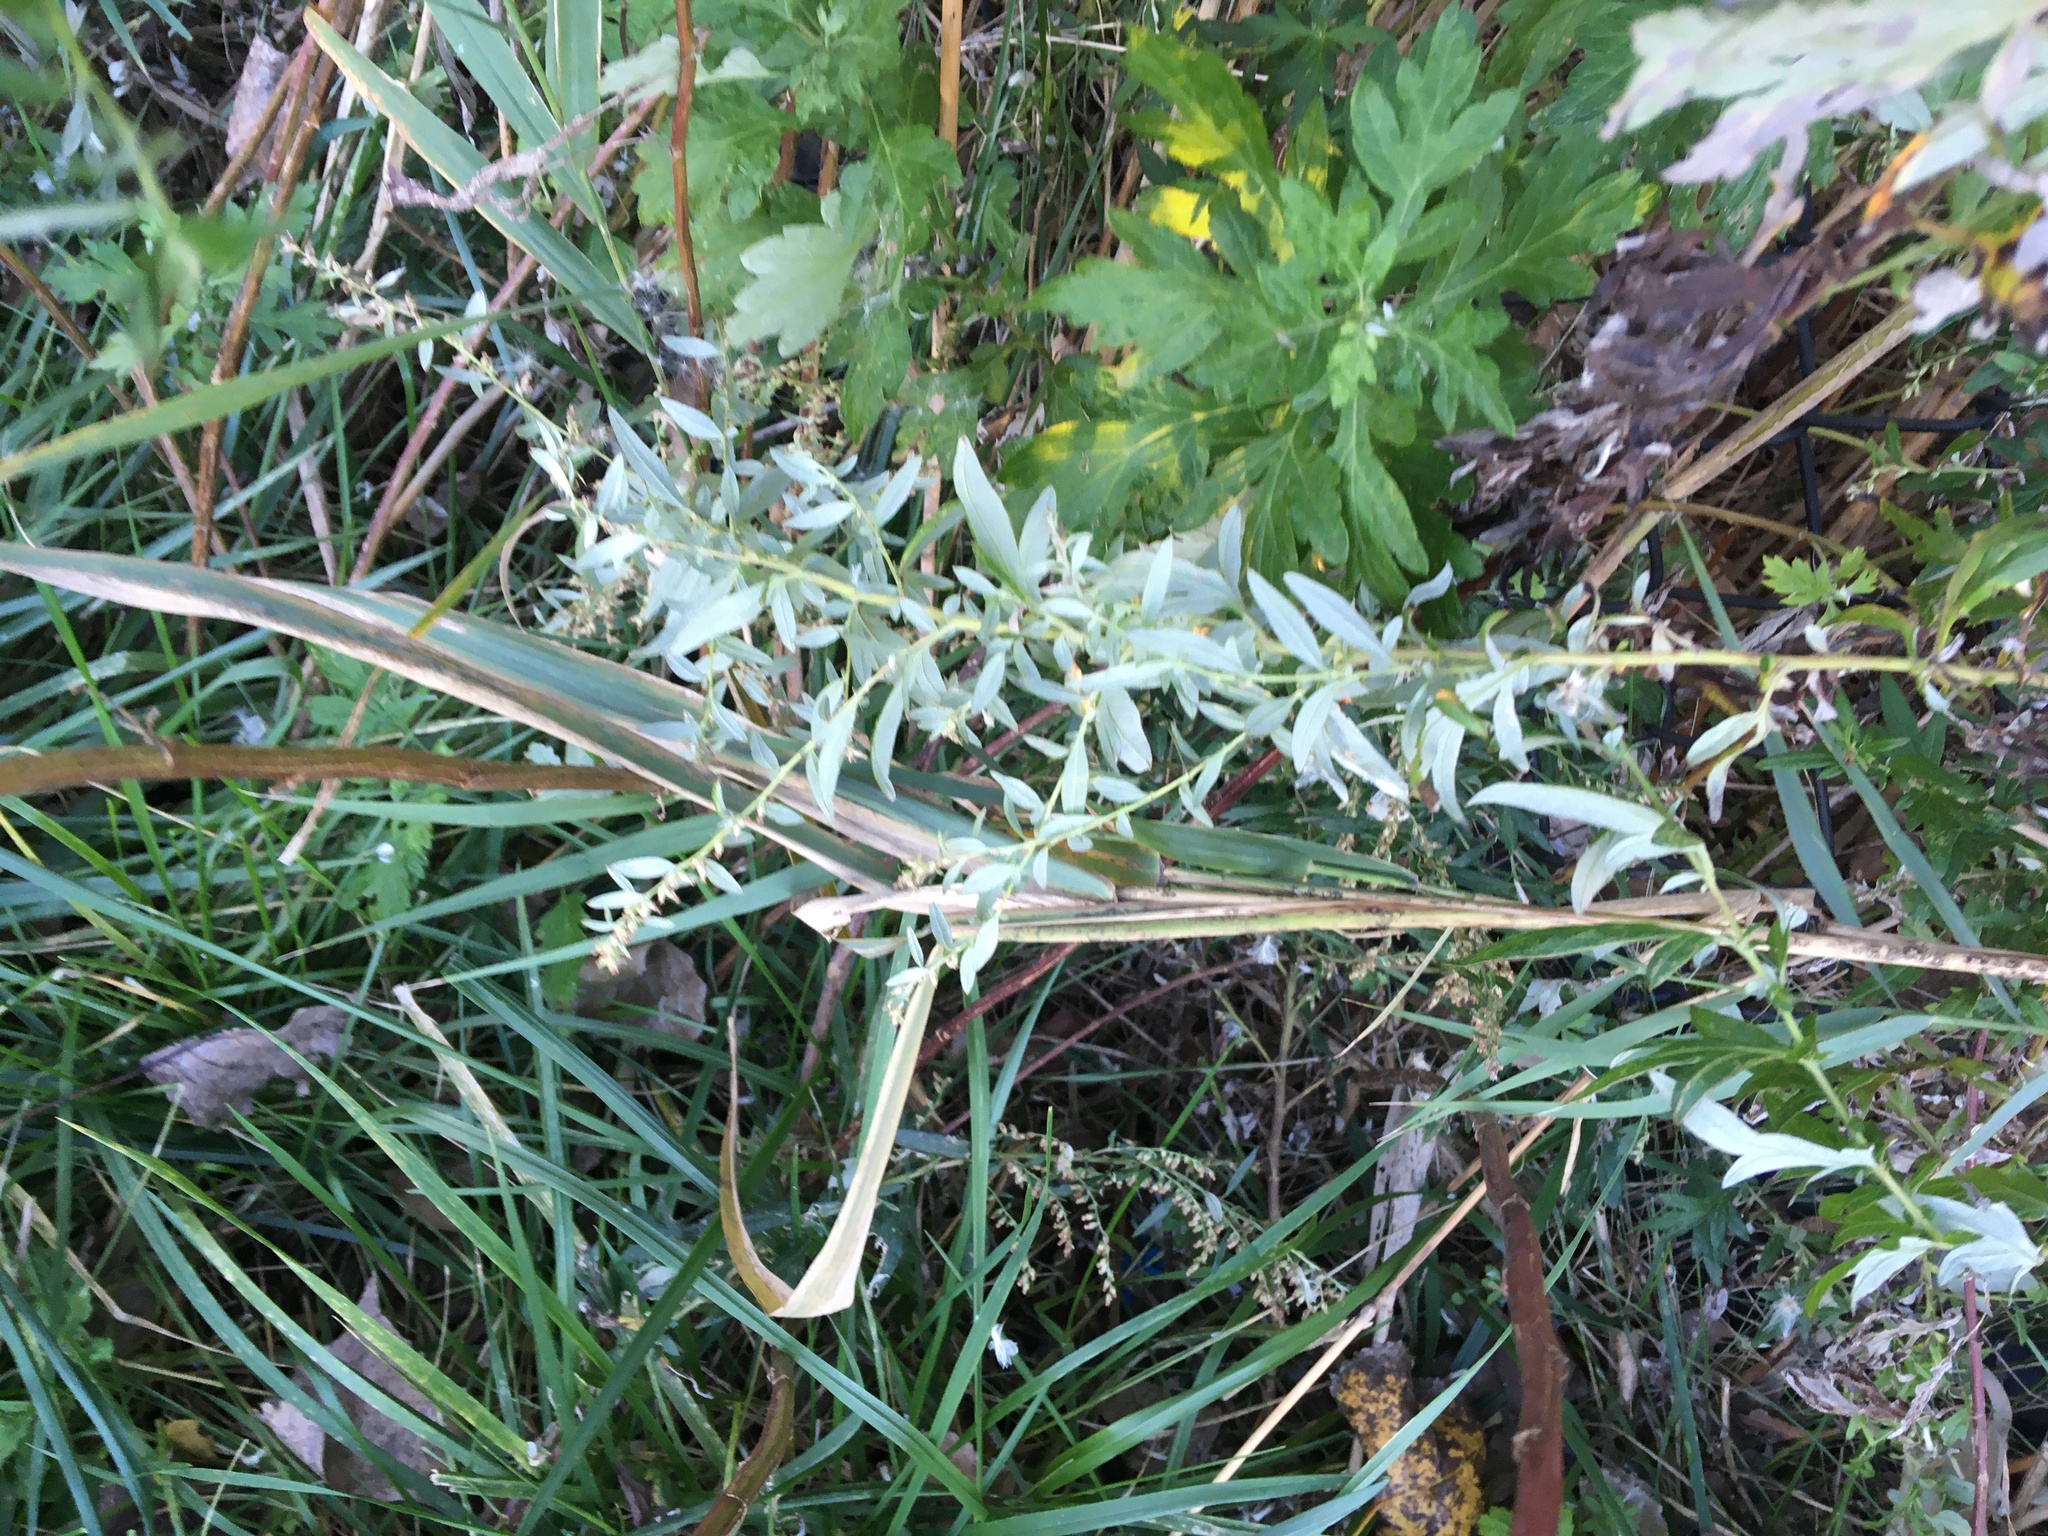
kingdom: Plantae
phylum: Tracheophyta
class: Magnoliopsida
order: Asterales
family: Asteraceae
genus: Artemisia
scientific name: Artemisia vulgaris
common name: Mugwort
